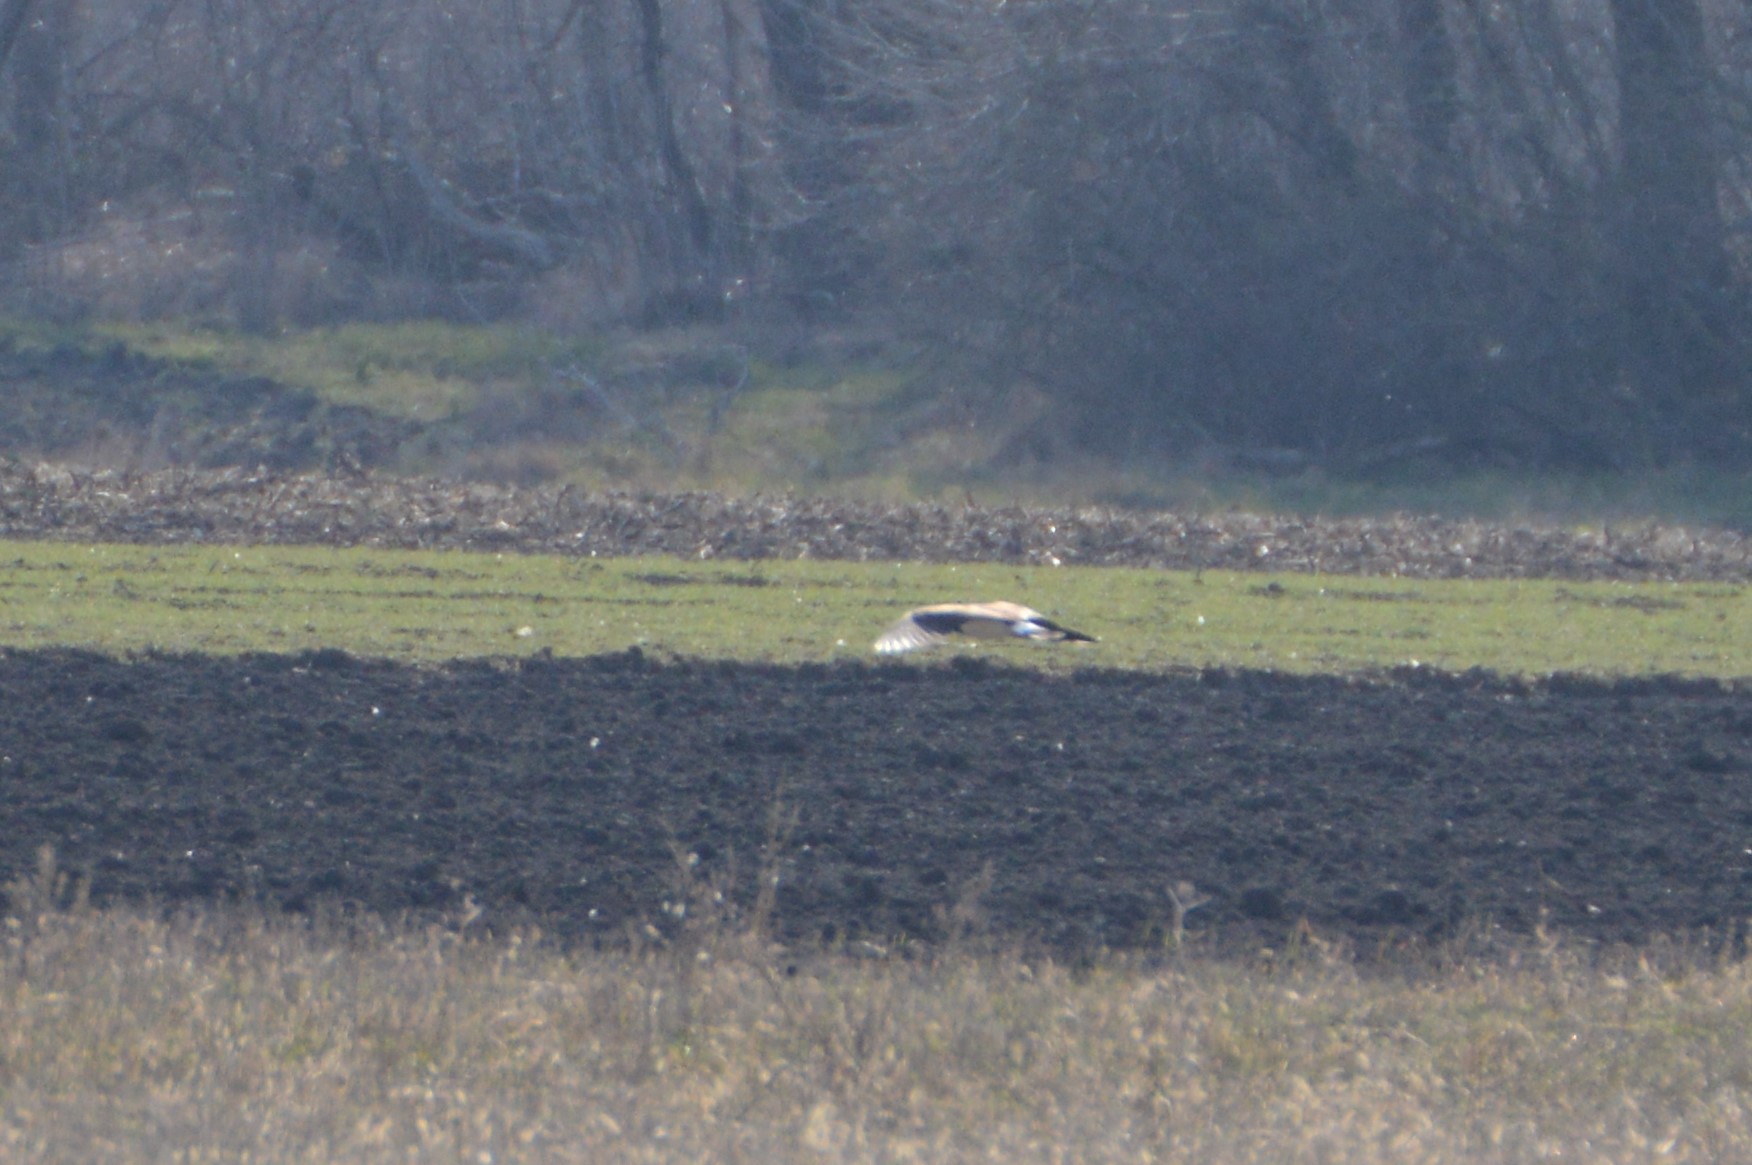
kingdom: Animalia
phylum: Chordata
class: Aves
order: Charadriiformes
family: Charadriidae
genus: Vanellus
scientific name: Vanellus vanellus
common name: Northern lapwing
